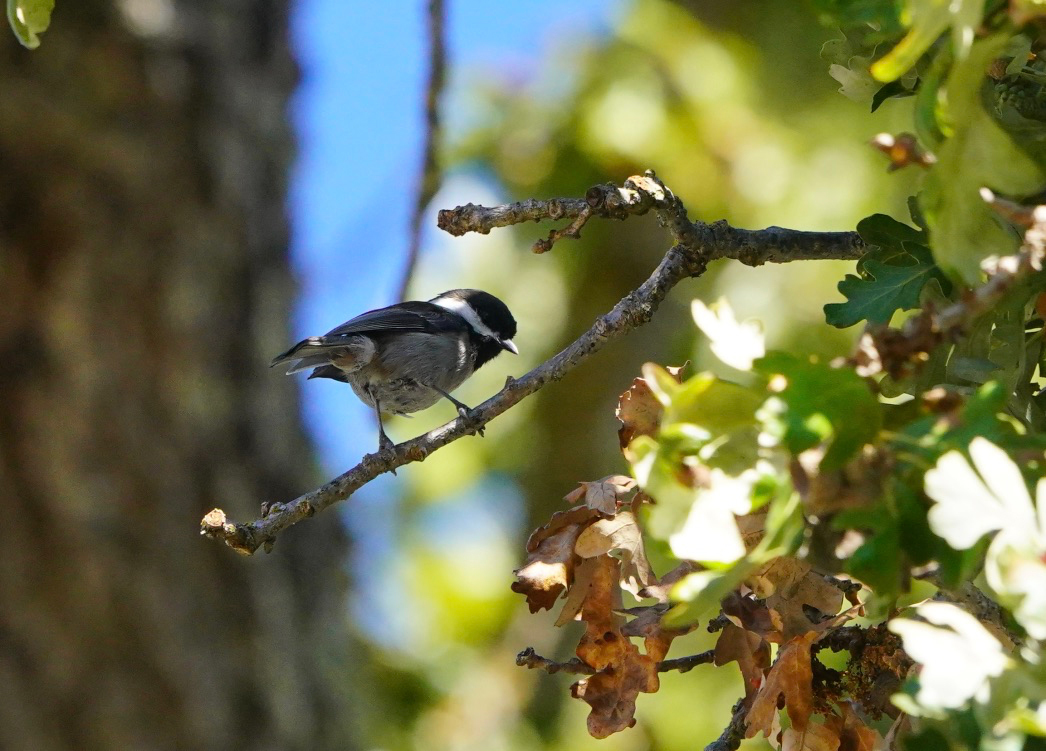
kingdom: Animalia
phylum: Chordata
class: Aves
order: Passeriformes
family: Paridae
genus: Poecile
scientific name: Poecile rufescens
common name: Chestnut-backed chickadee
